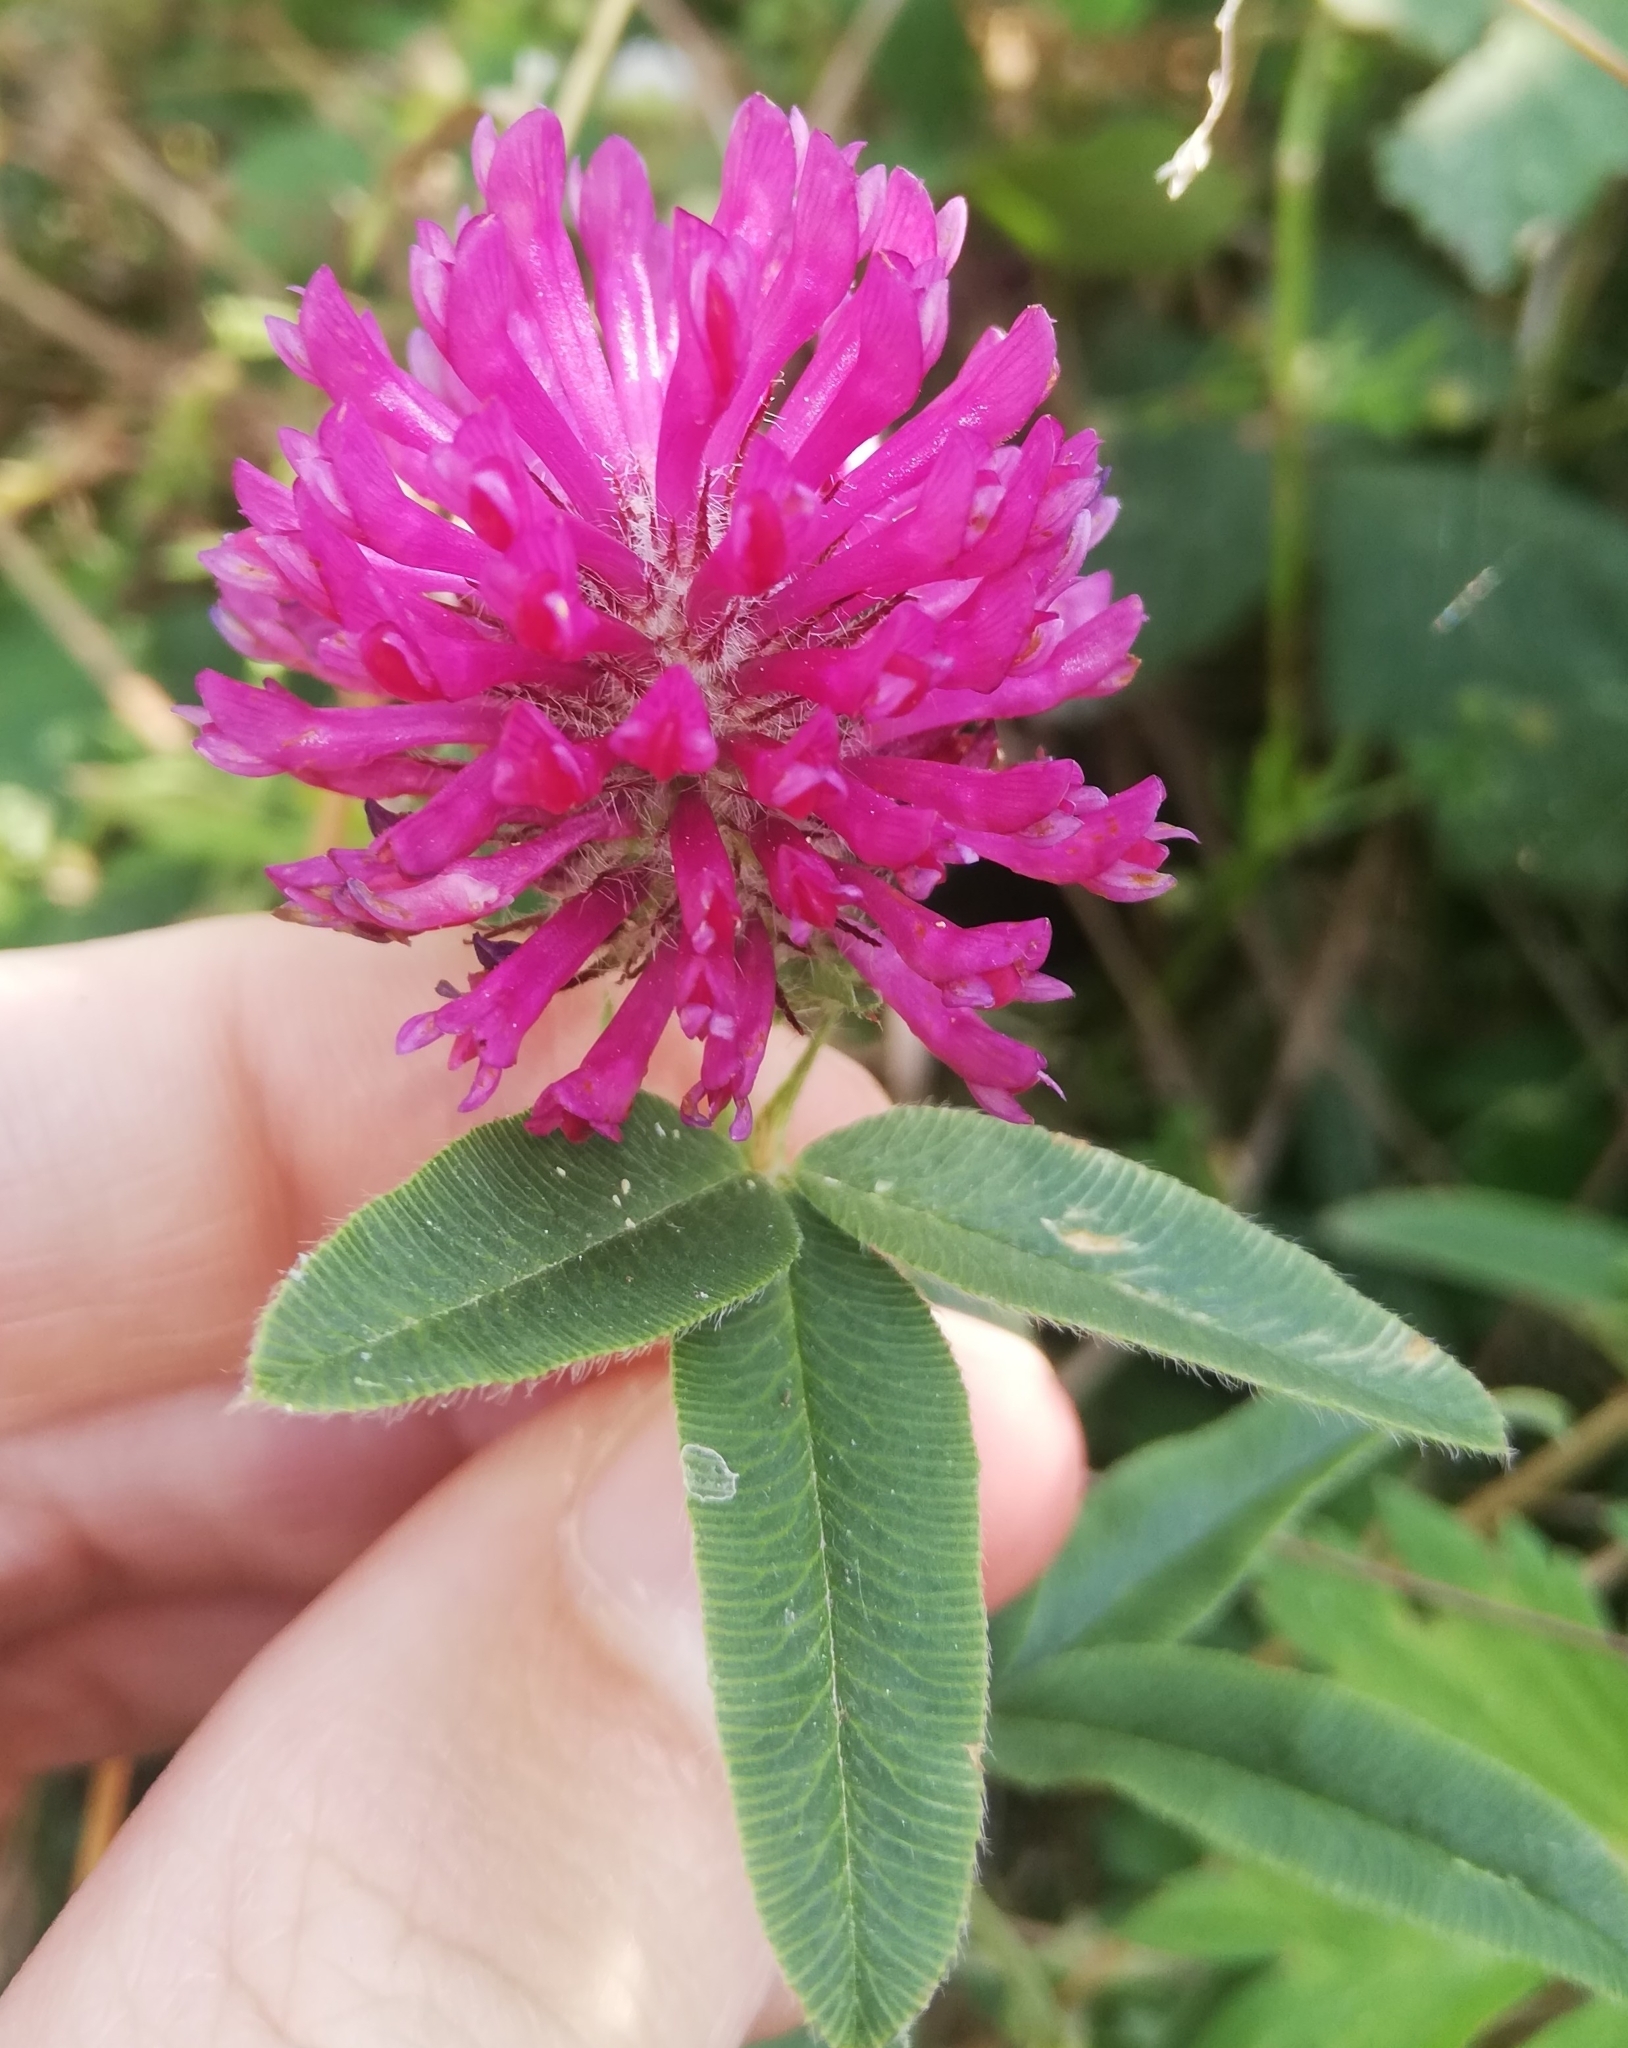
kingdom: Plantae
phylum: Tracheophyta
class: Magnoliopsida
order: Fabales
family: Fabaceae
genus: Trifolium
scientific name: Trifolium alpestre
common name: Owl-head clover
